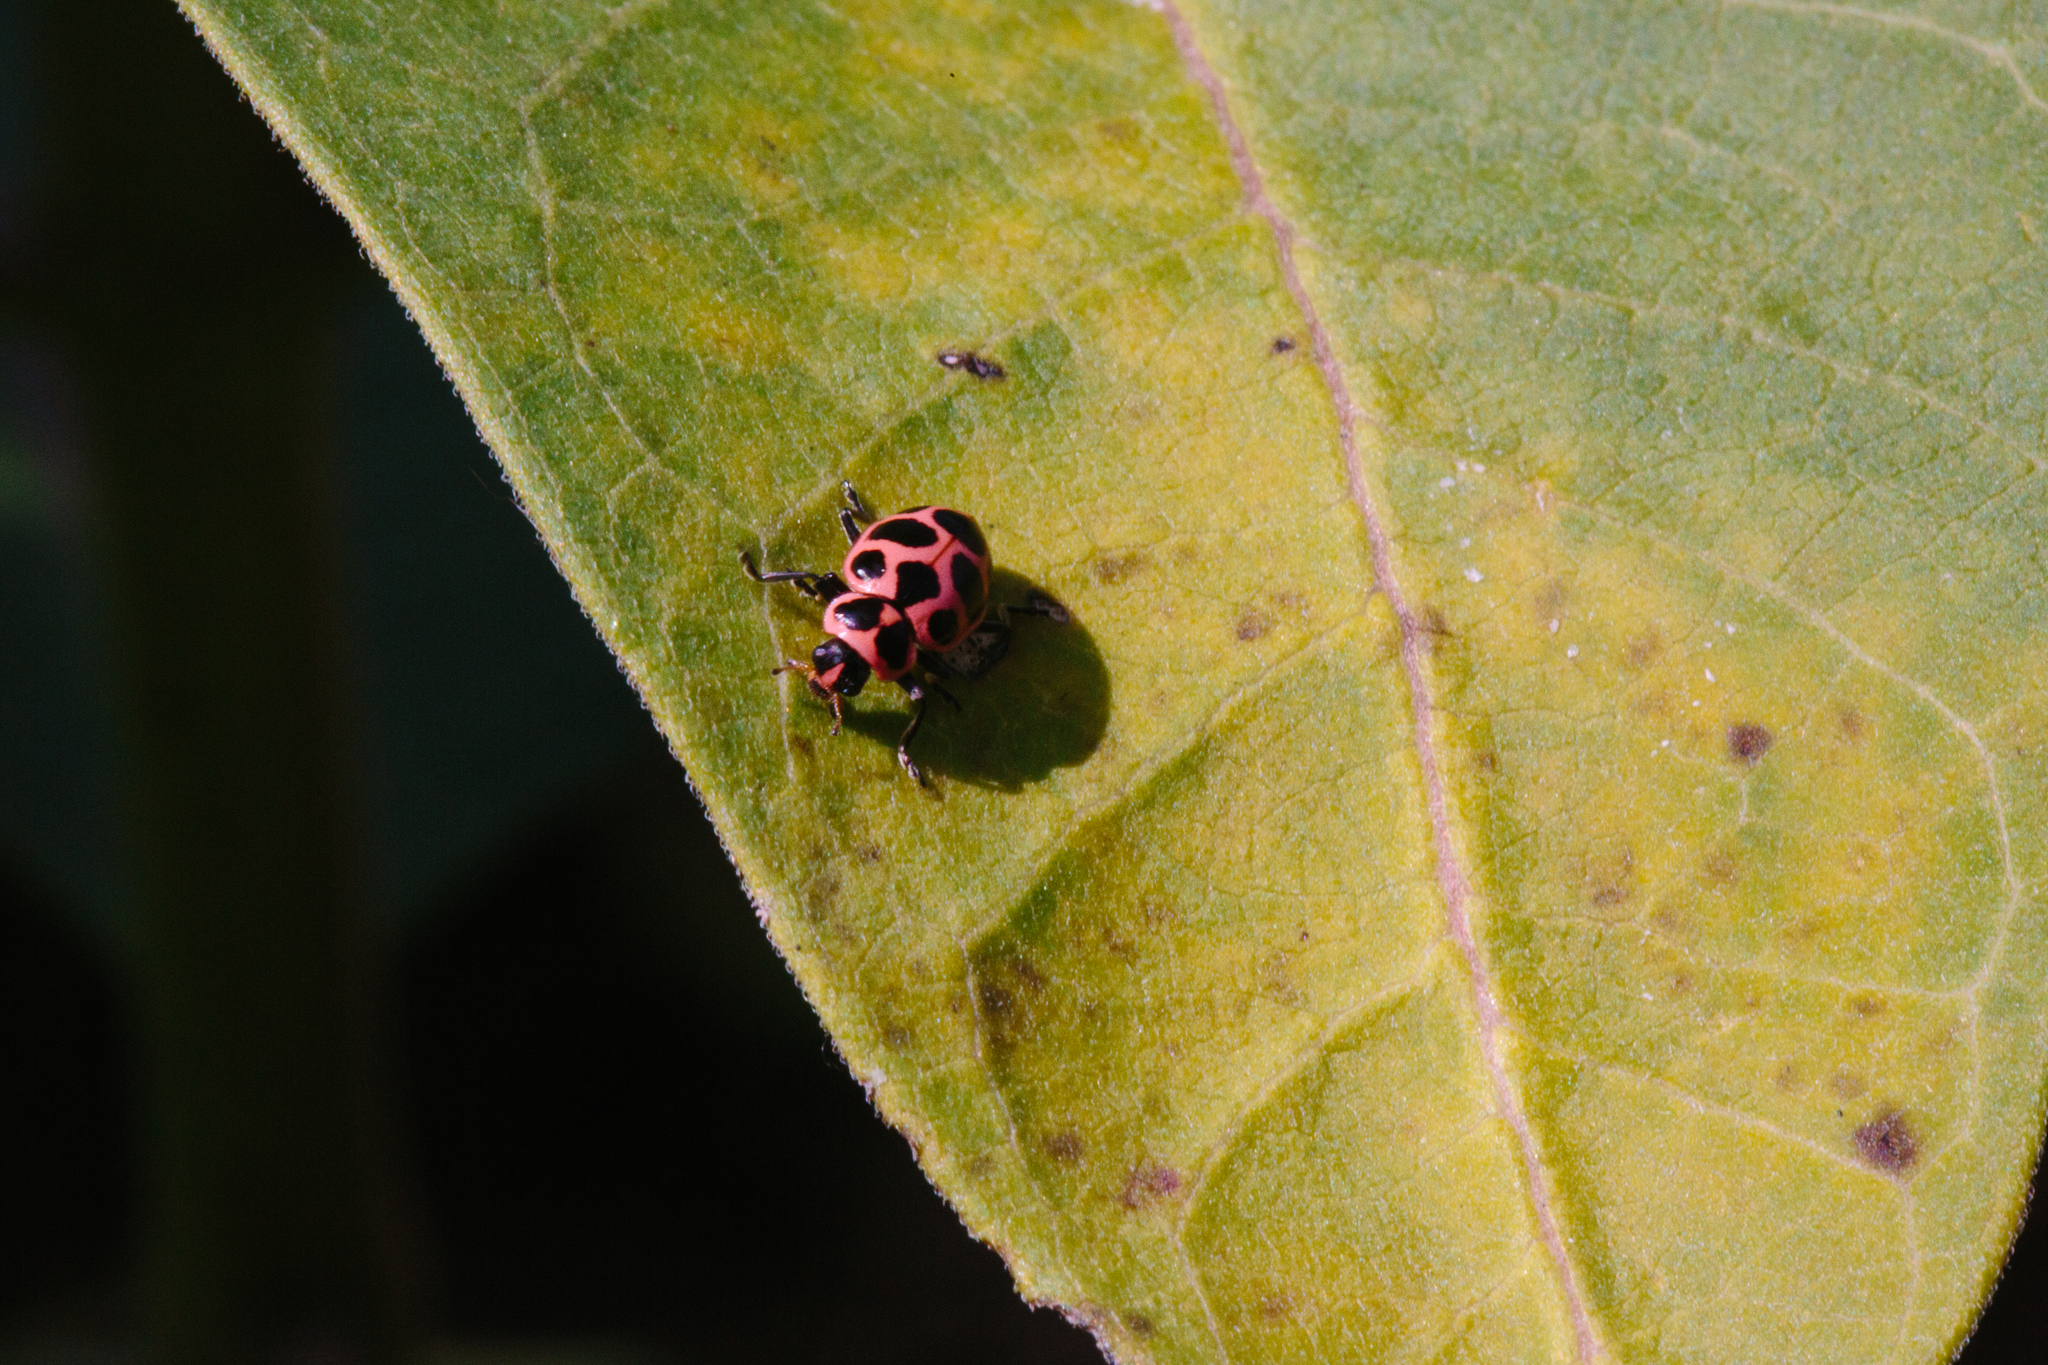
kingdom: Animalia
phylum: Arthropoda
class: Insecta
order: Coleoptera
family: Coccinellidae
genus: Coleomegilla
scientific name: Coleomegilla maculata
